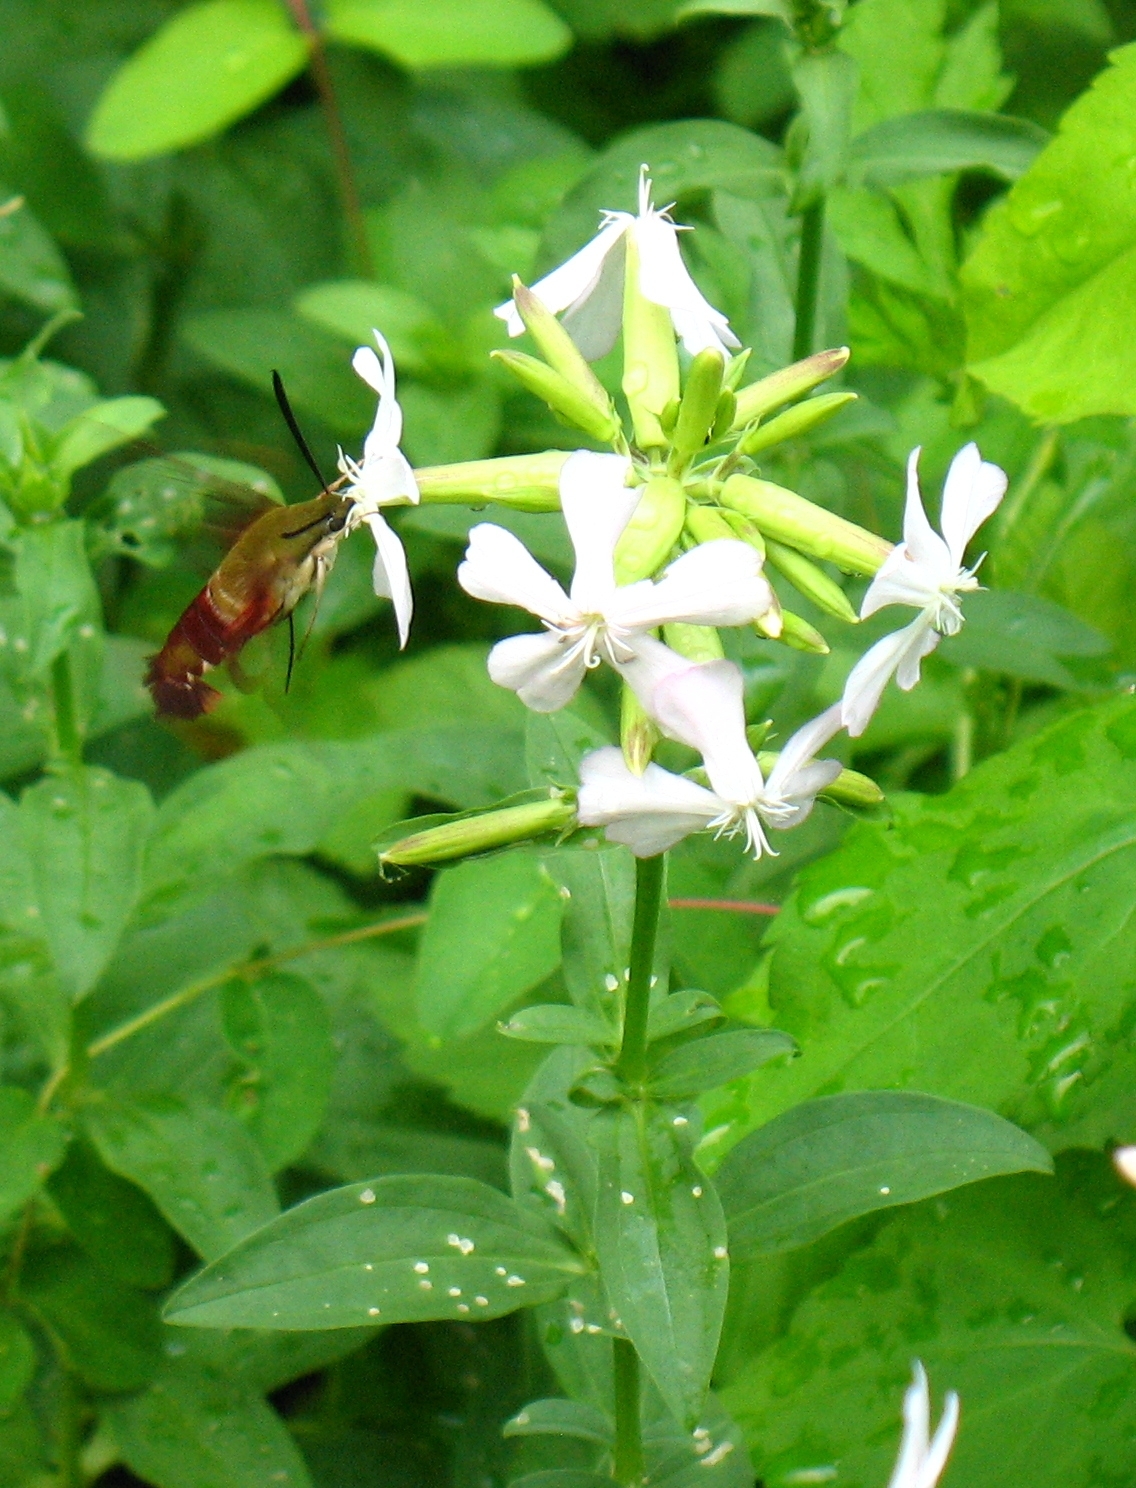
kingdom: Animalia
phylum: Arthropoda
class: Insecta
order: Lepidoptera
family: Sphingidae
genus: Hemaris
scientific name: Hemaris thysbe
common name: Common clear-wing
